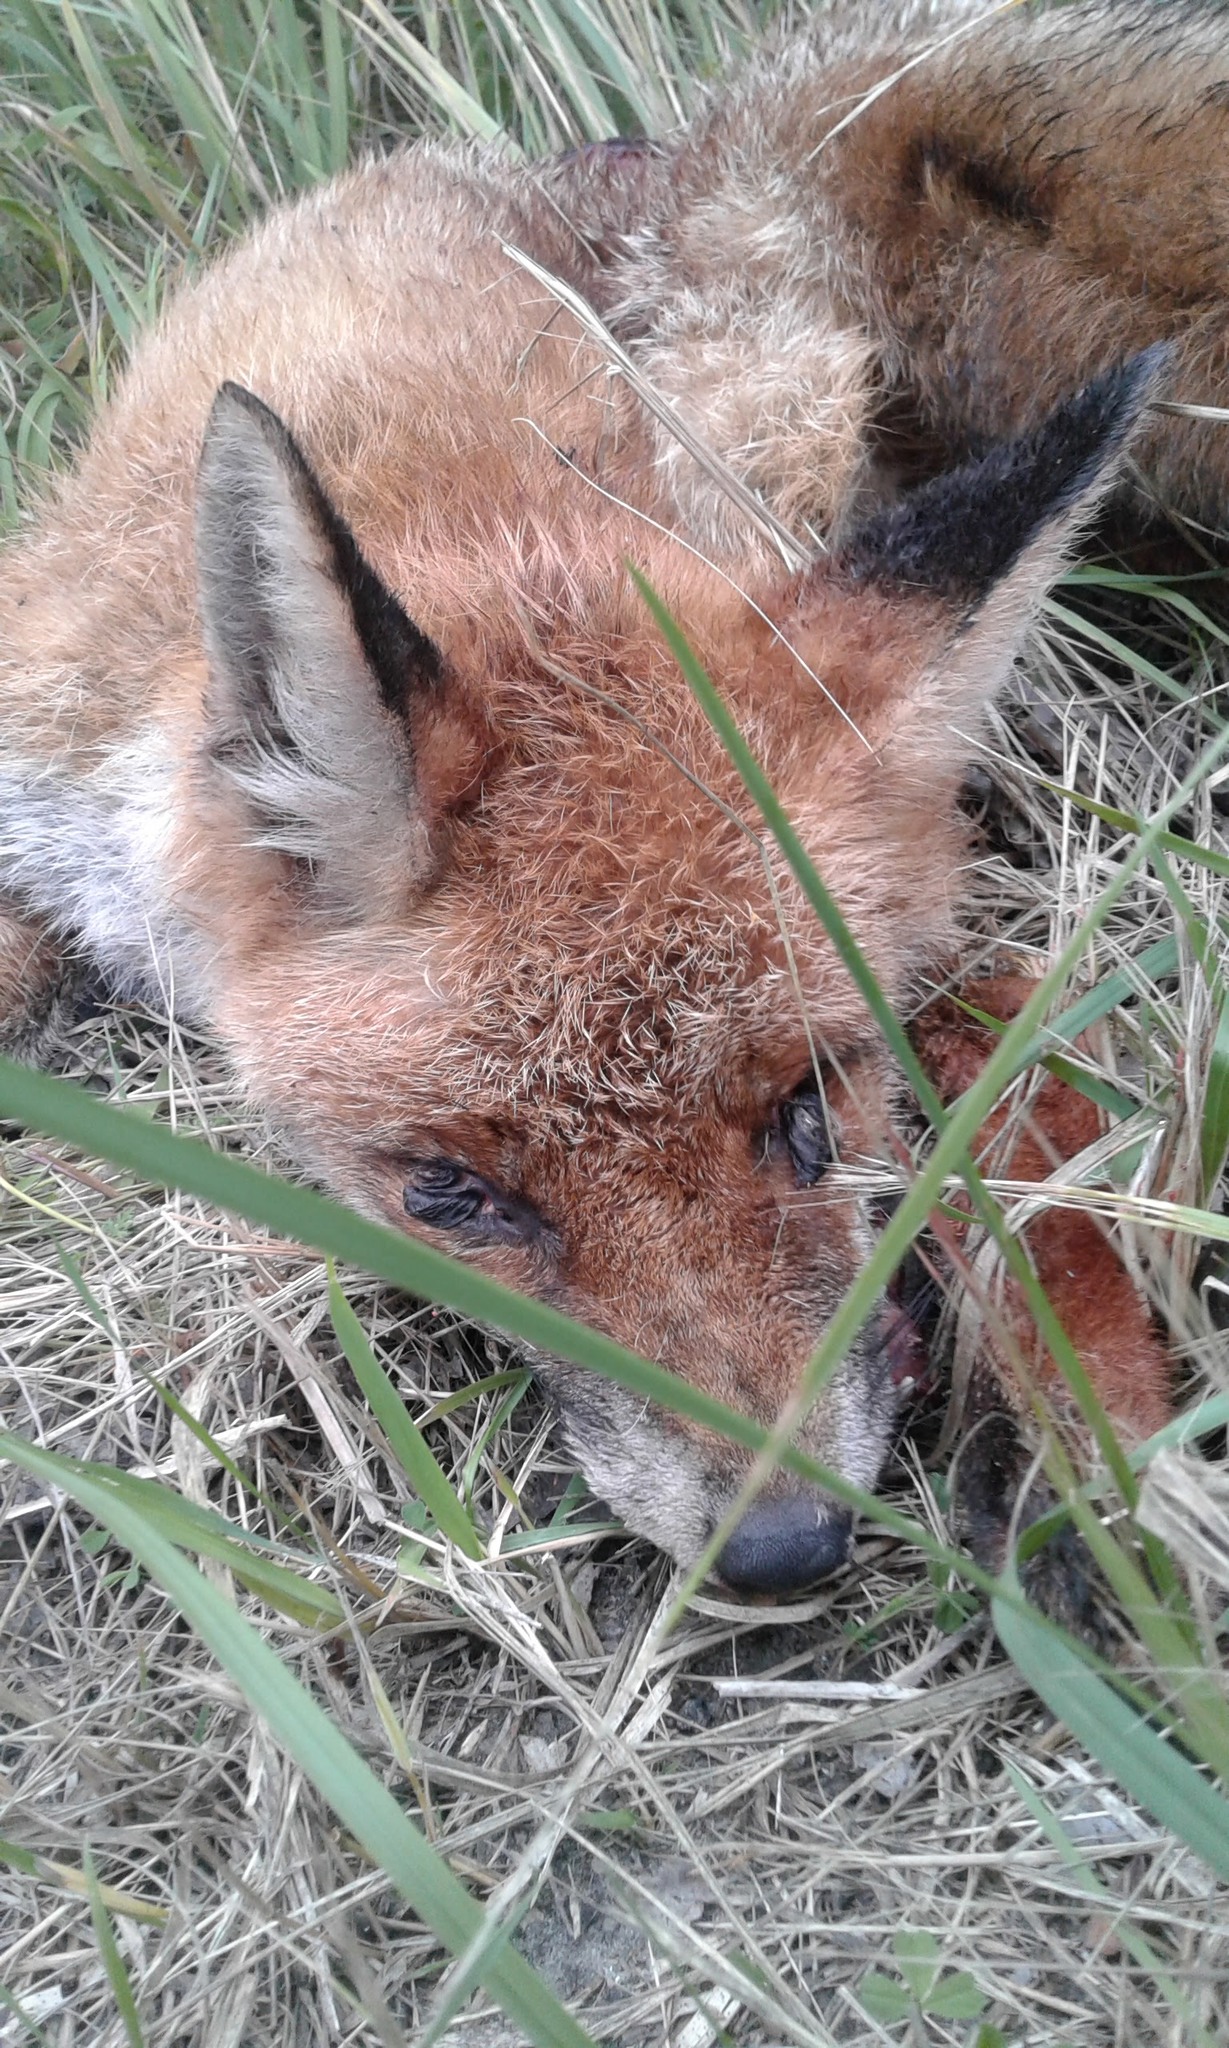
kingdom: Animalia
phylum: Chordata
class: Mammalia
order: Carnivora
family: Canidae
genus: Vulpes
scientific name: Vulpes vulpes
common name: Red fox
